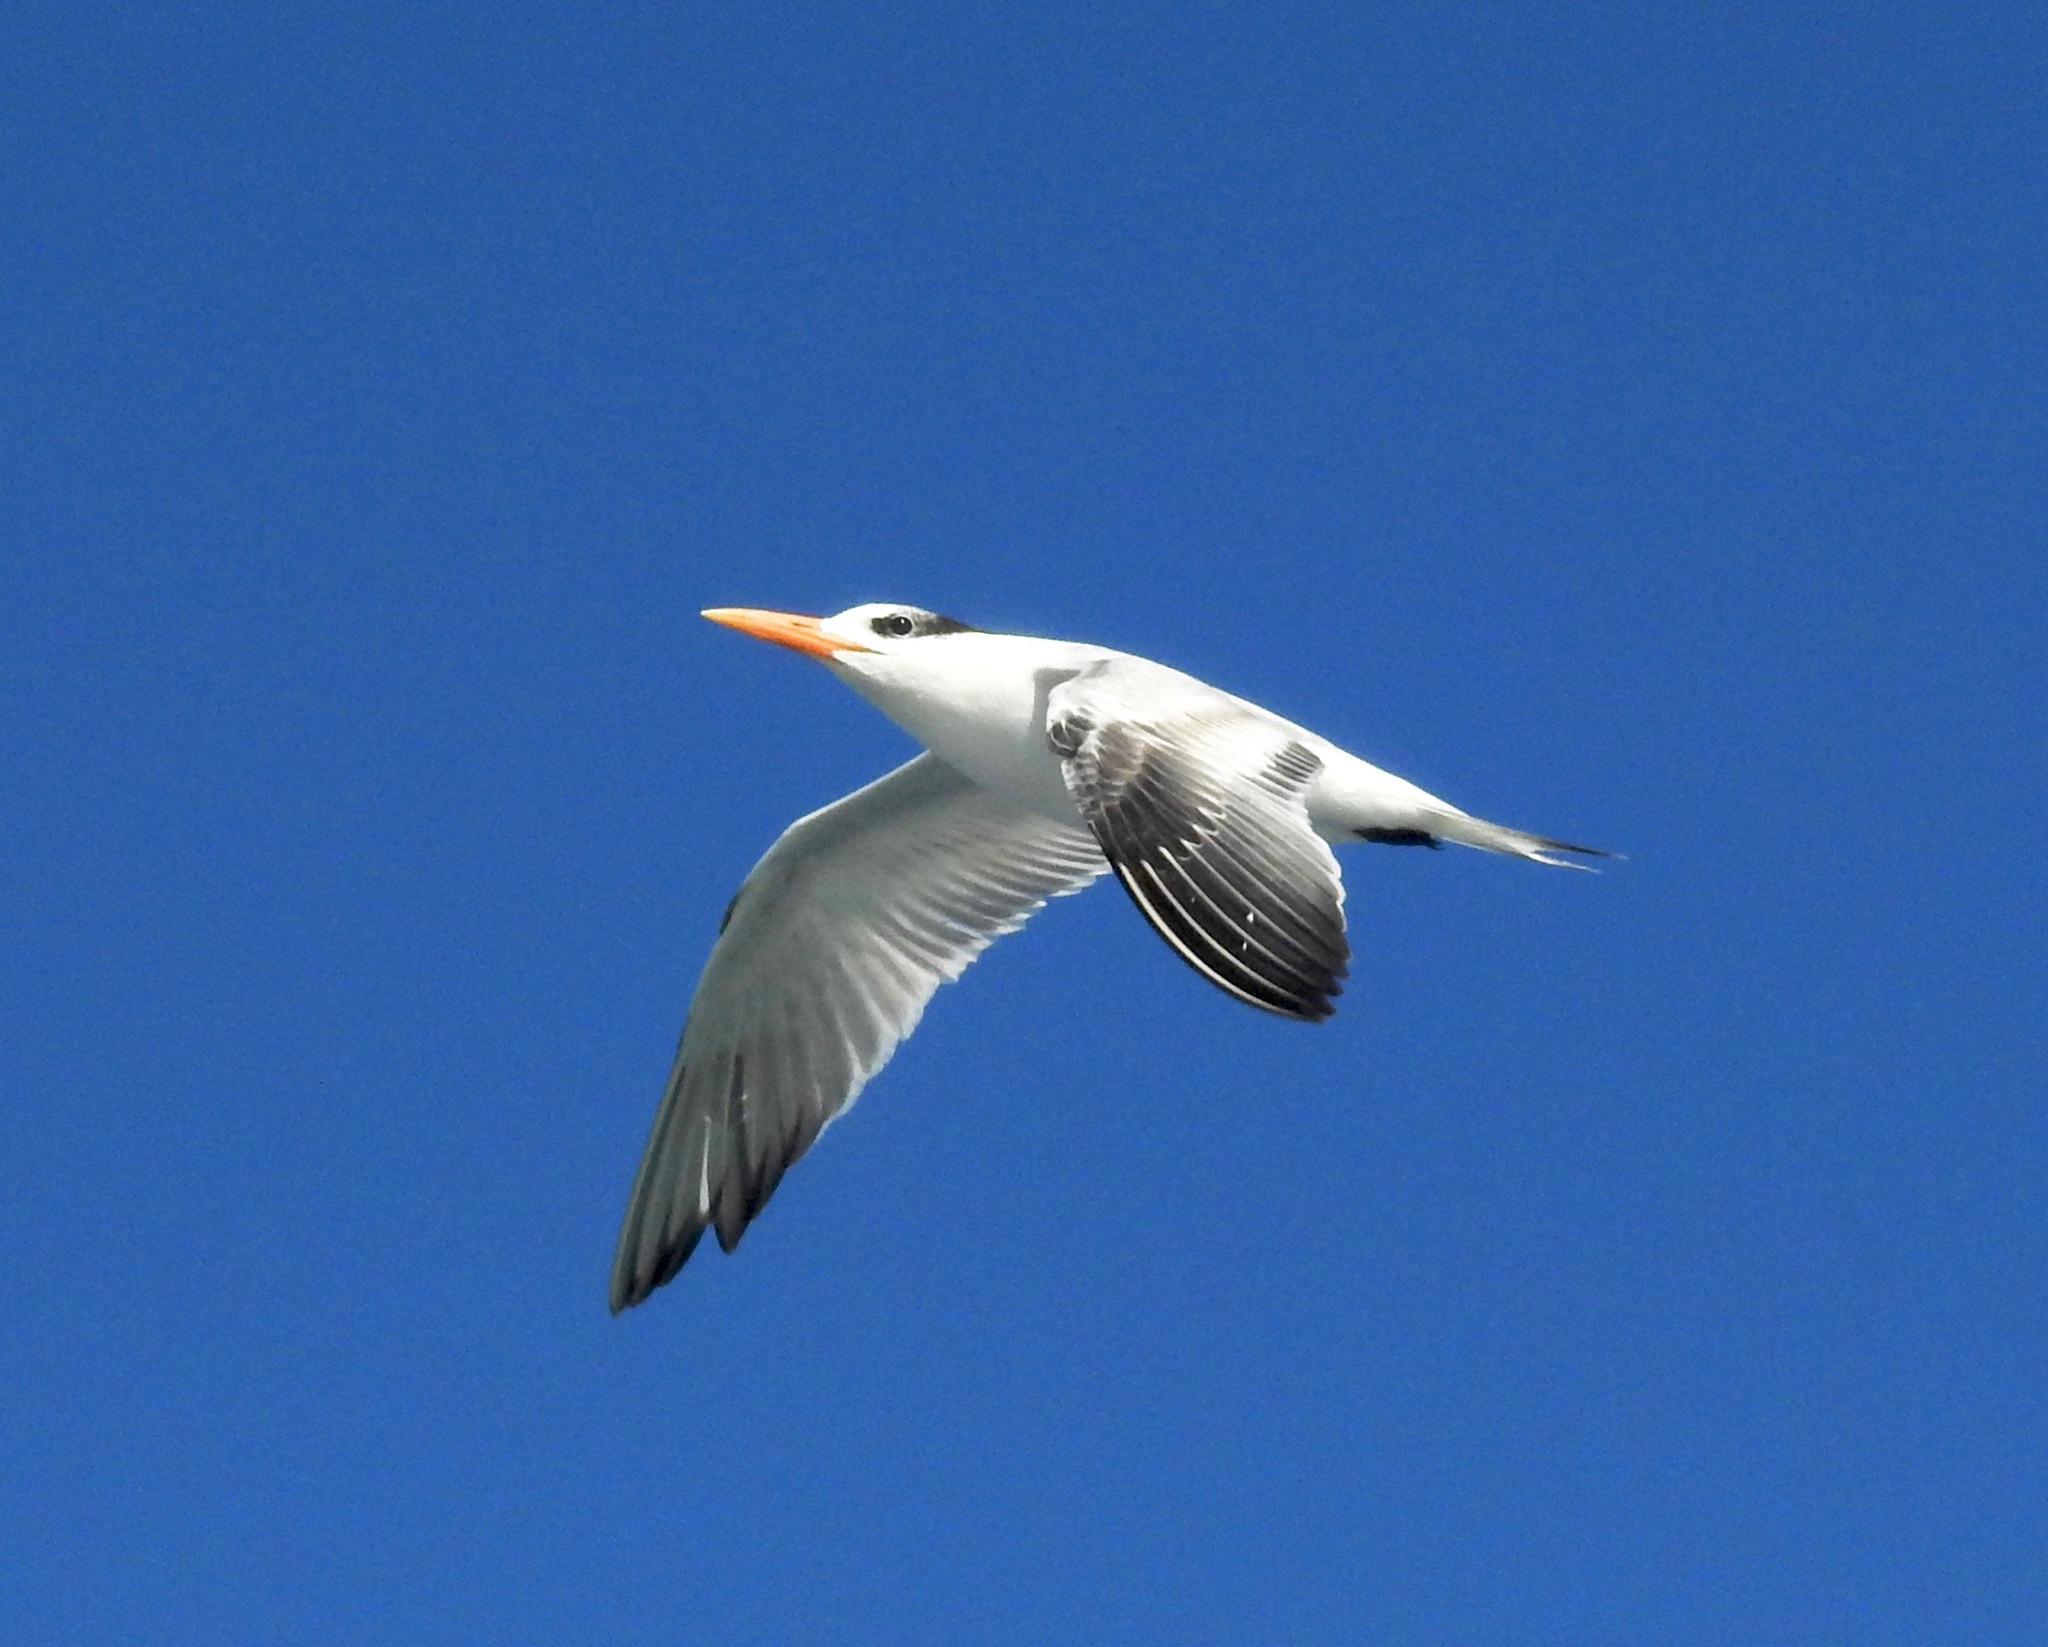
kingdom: Animalia
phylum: Chordata
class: Aves
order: Charadriiformes
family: Laridae
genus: Thalasseus
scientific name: Thalasseus maximus
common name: Royal tern
